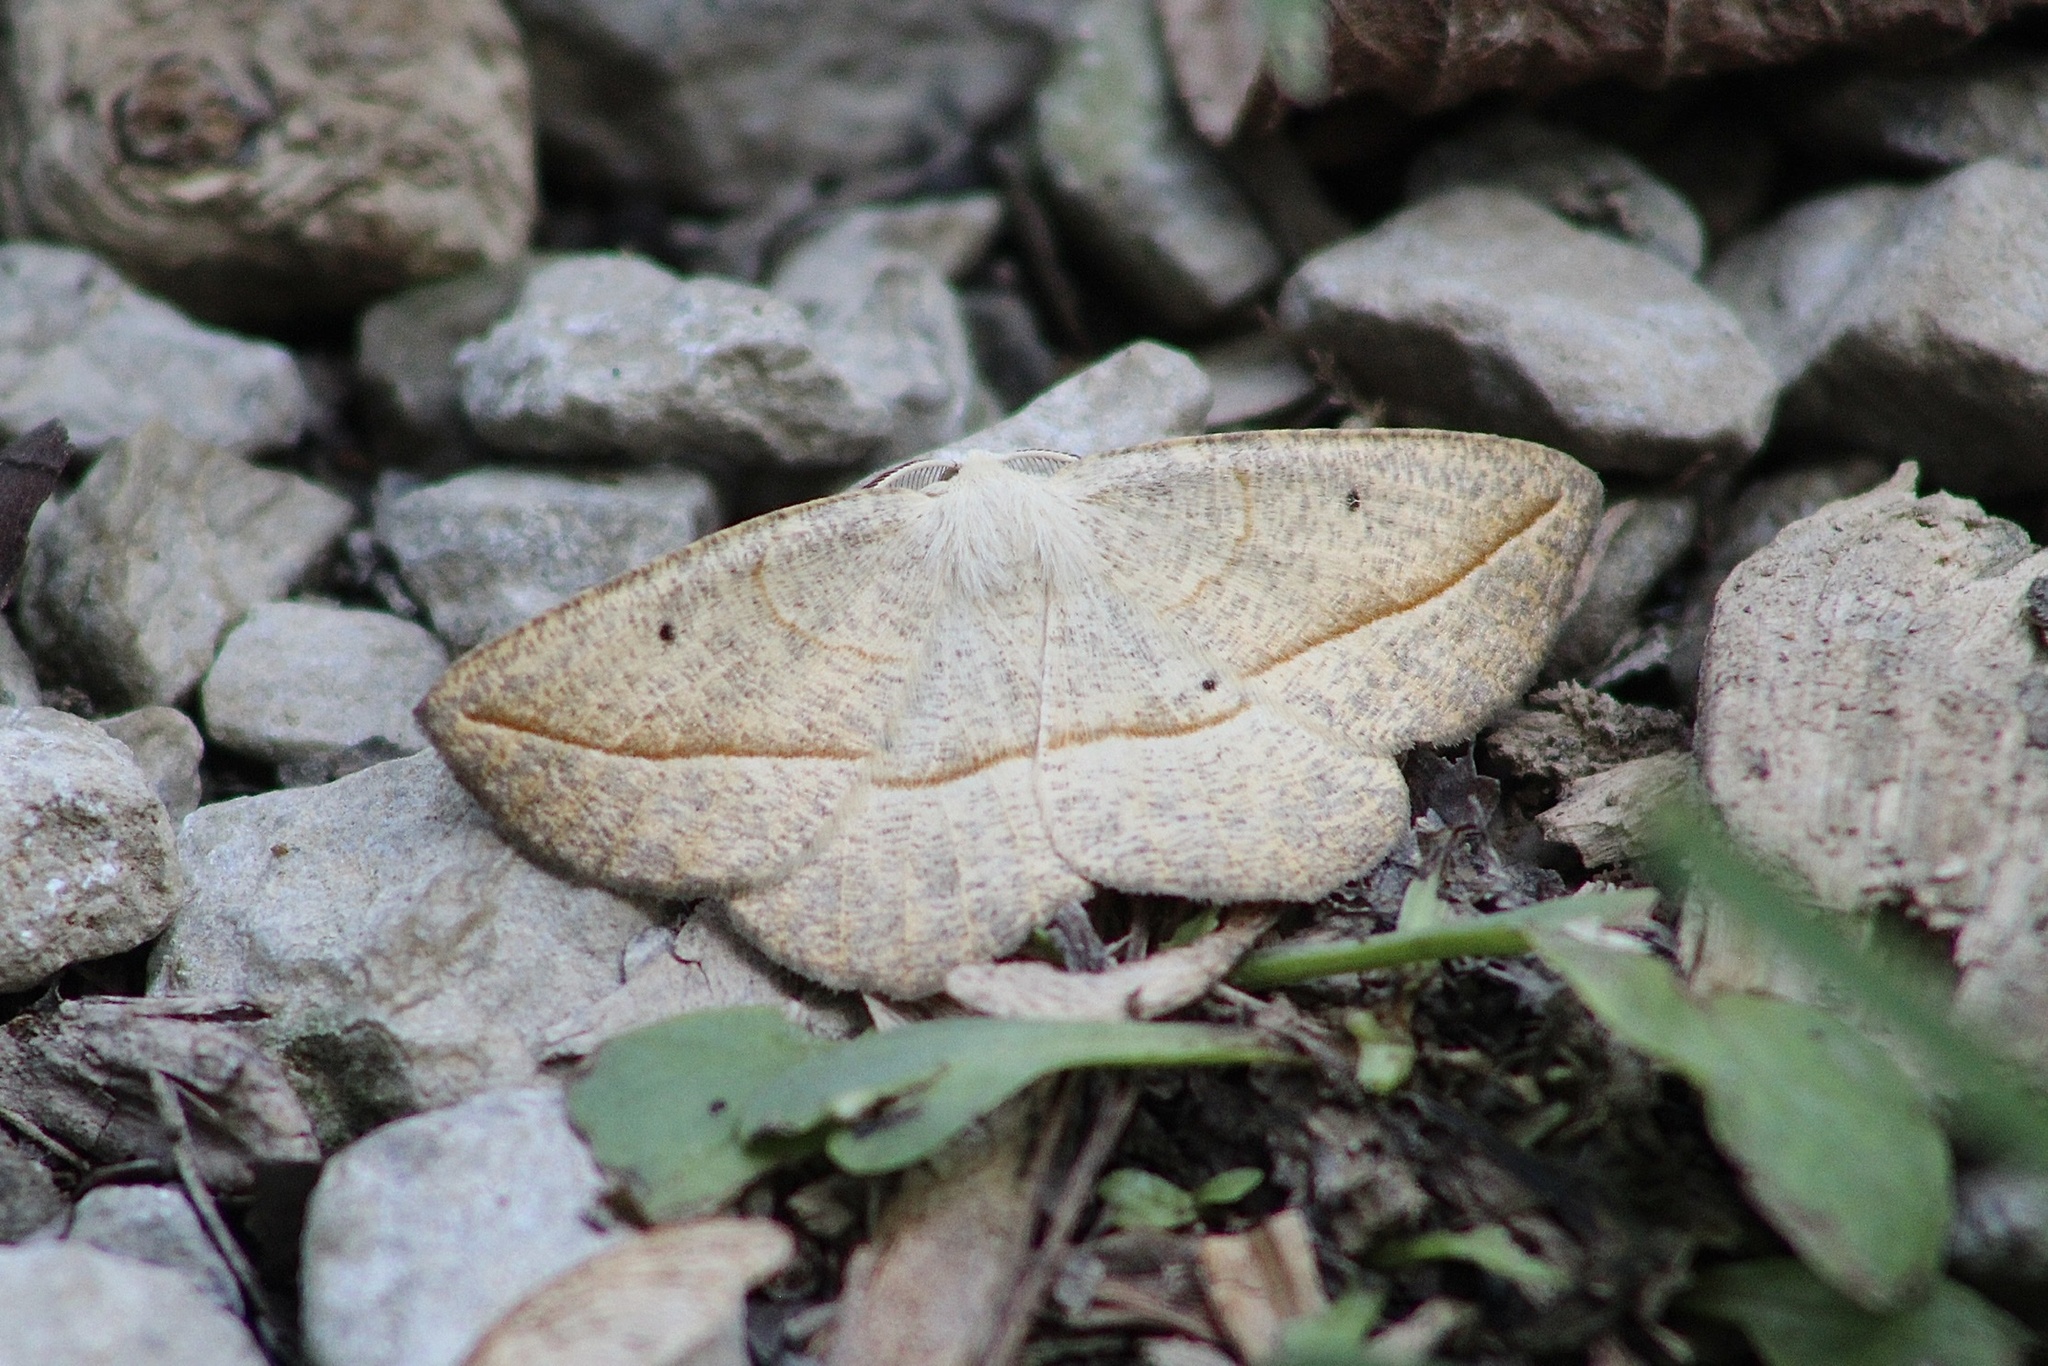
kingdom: Animalia
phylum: Arthropoda
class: Insecta
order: Lepidoptera
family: Geometridae
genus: Eusarca
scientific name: Eusarca confusaria
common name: Confused eusarca
